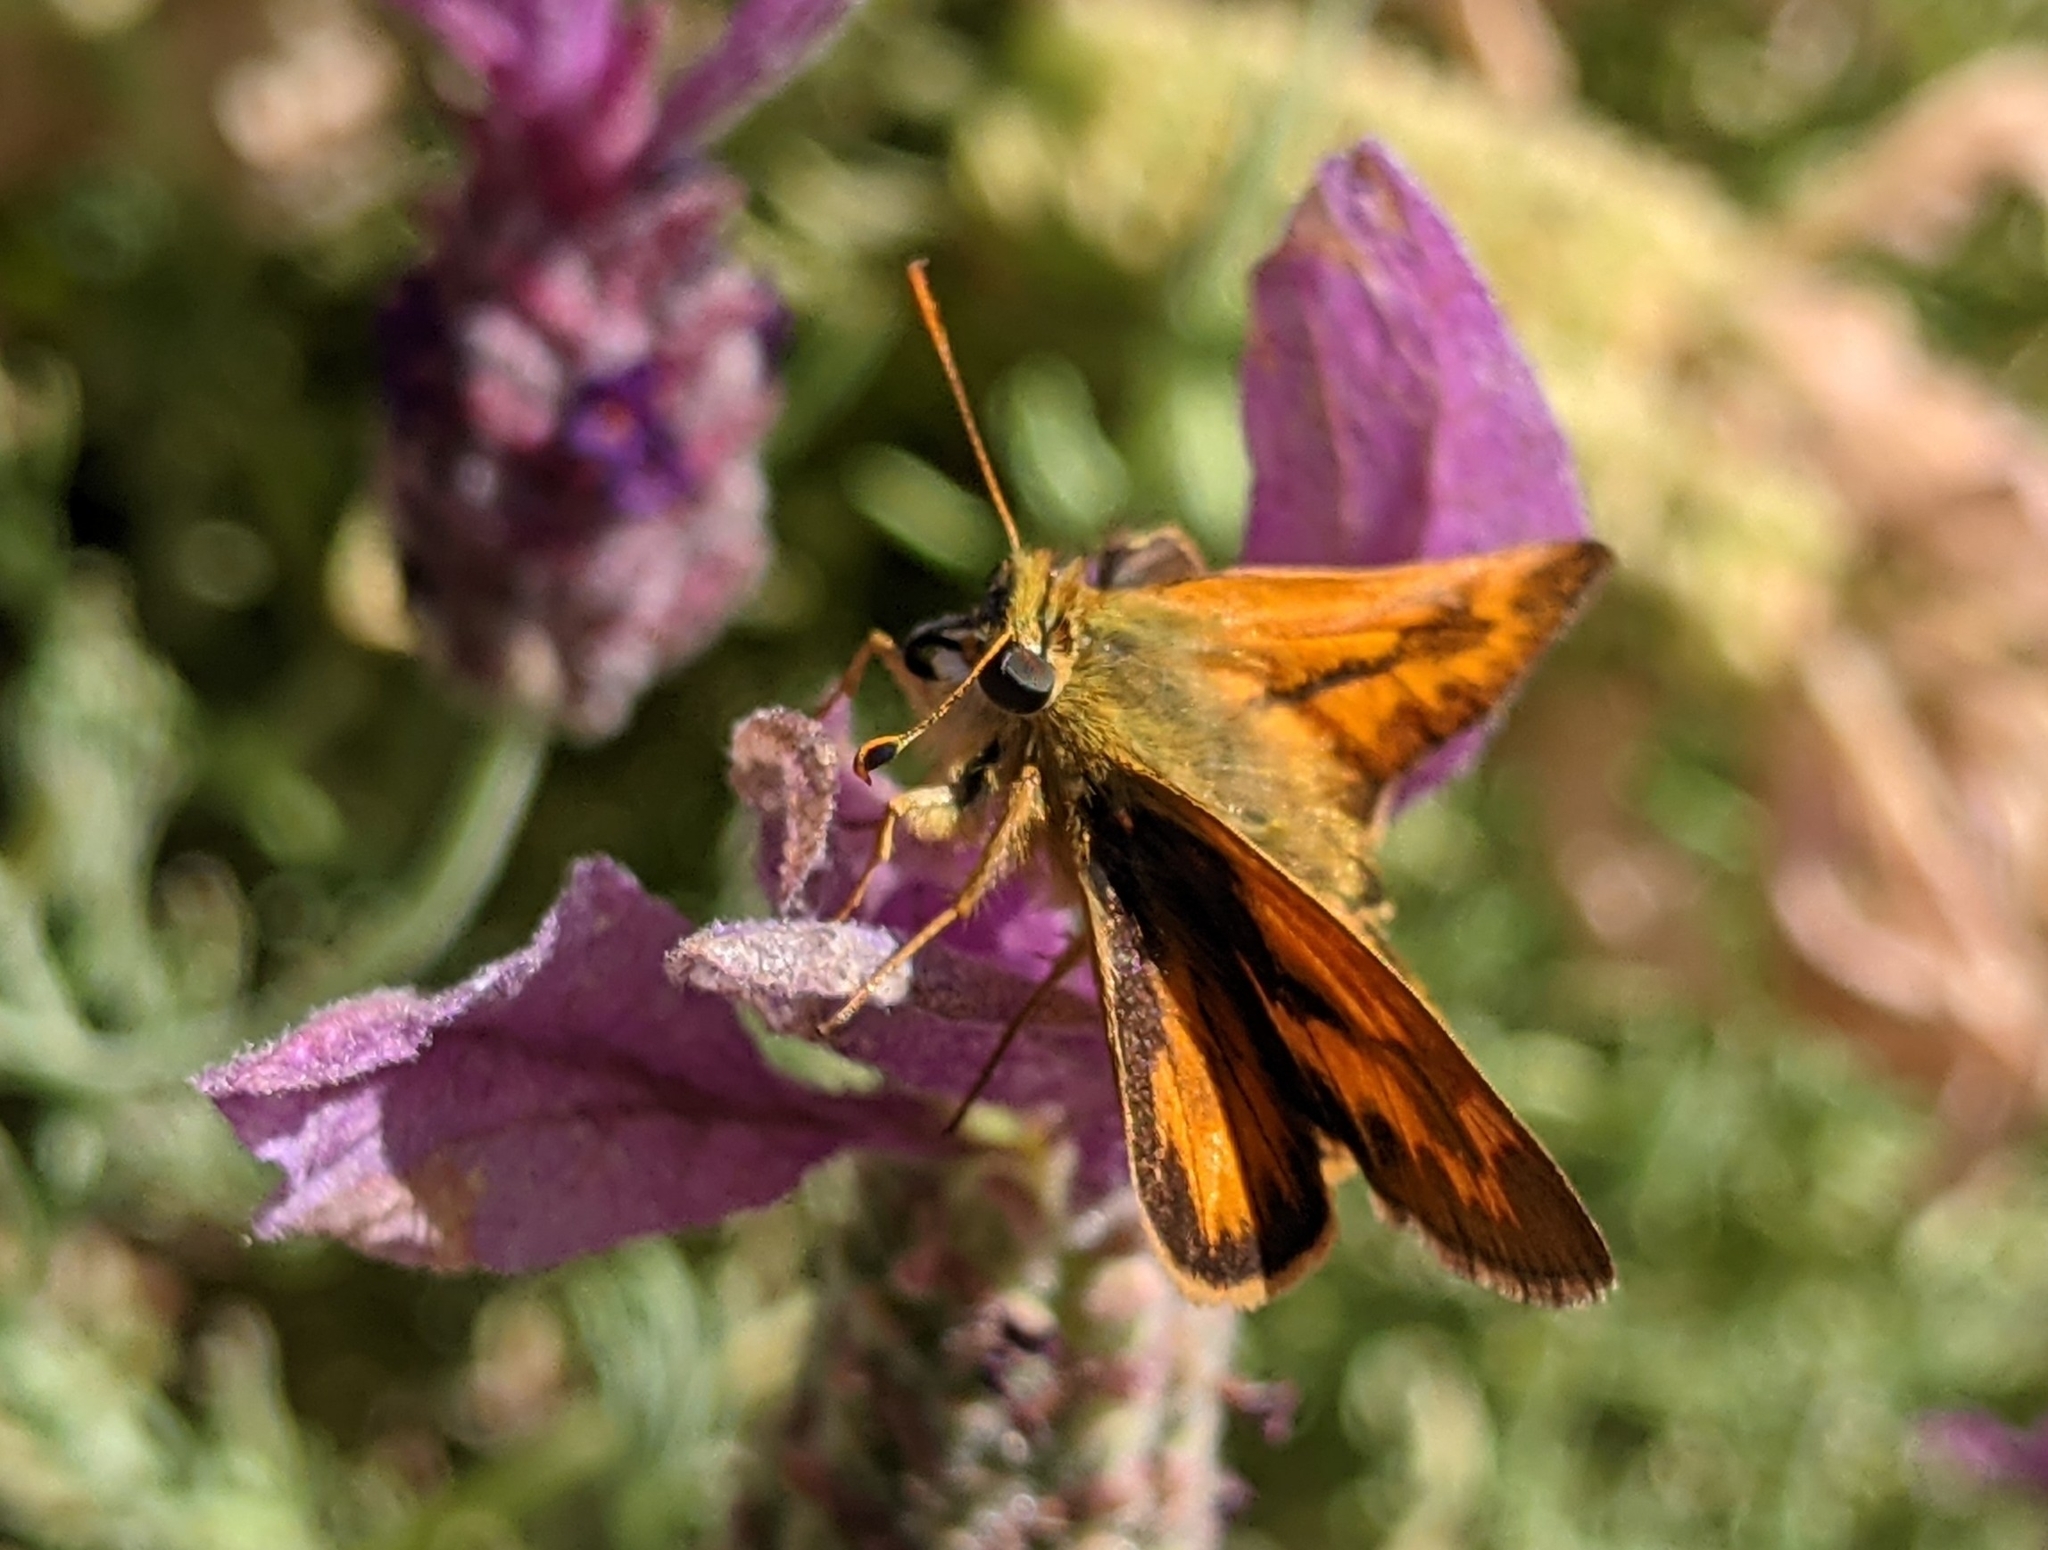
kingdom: Animalia
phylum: Arthropoda
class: Insecta
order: Lepidoptera
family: Hesperiidae
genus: Ochlodes
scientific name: Ochlodes sylvanoides
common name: Woodland skipper
